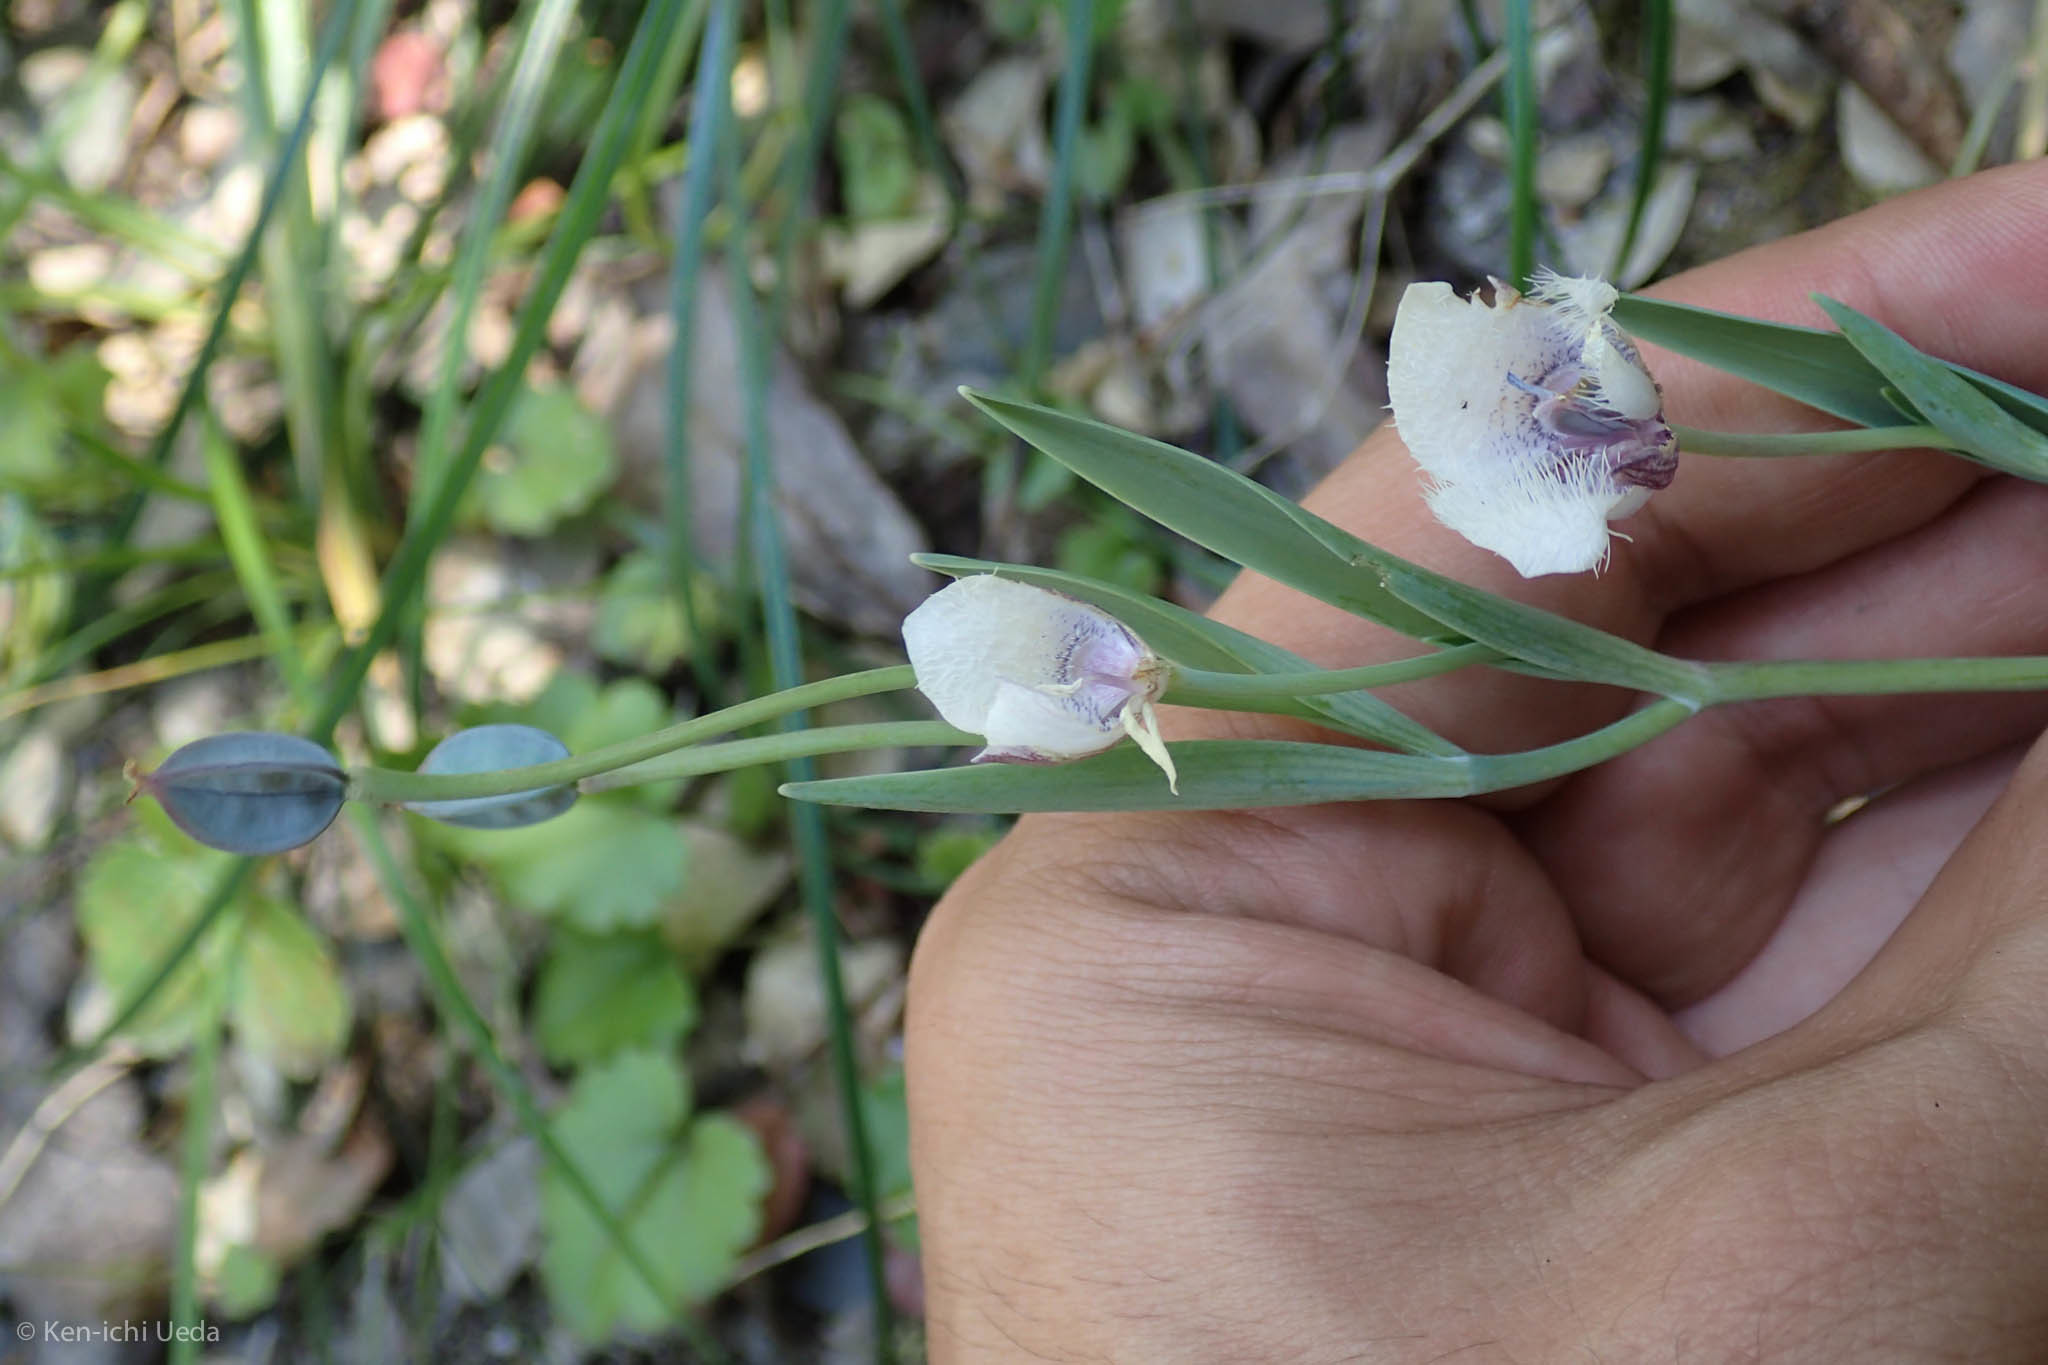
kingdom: Plantae
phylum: Tracheophyta
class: Liliopsida
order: Liliales
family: Liliaceae
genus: Calochortus
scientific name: Calochortus tolmiei
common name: Pussy-ears
